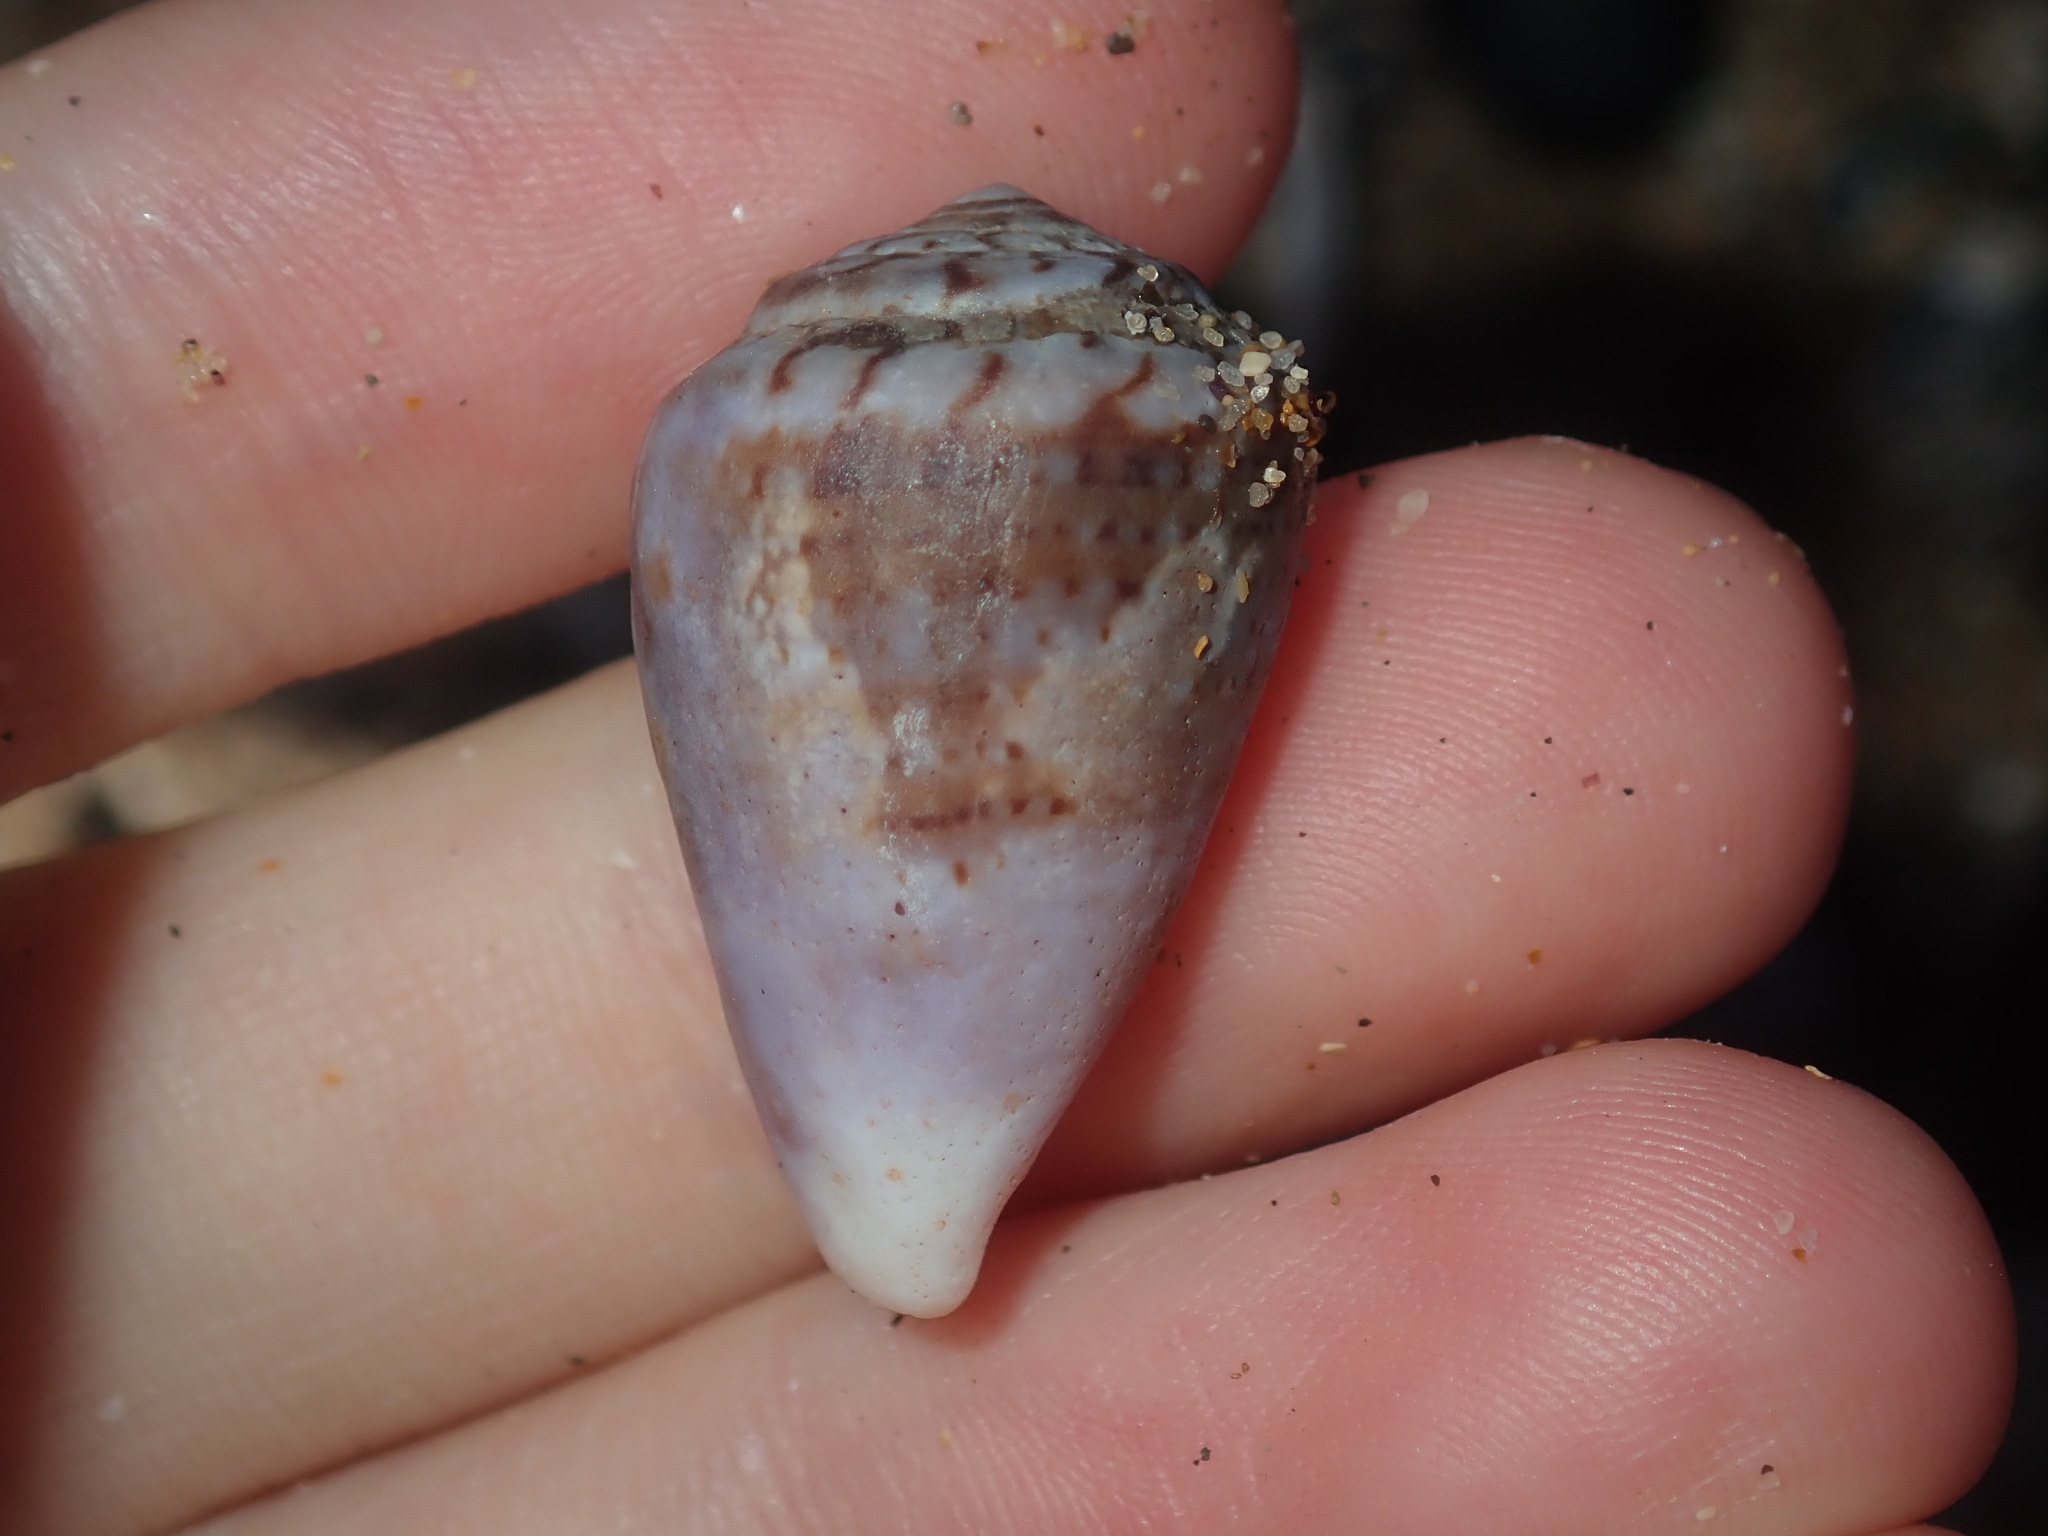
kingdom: Animalia
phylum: Mollusca
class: Gastropoda
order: Neogastropoda
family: Conidae
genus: Conus
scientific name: Conus aplustre
